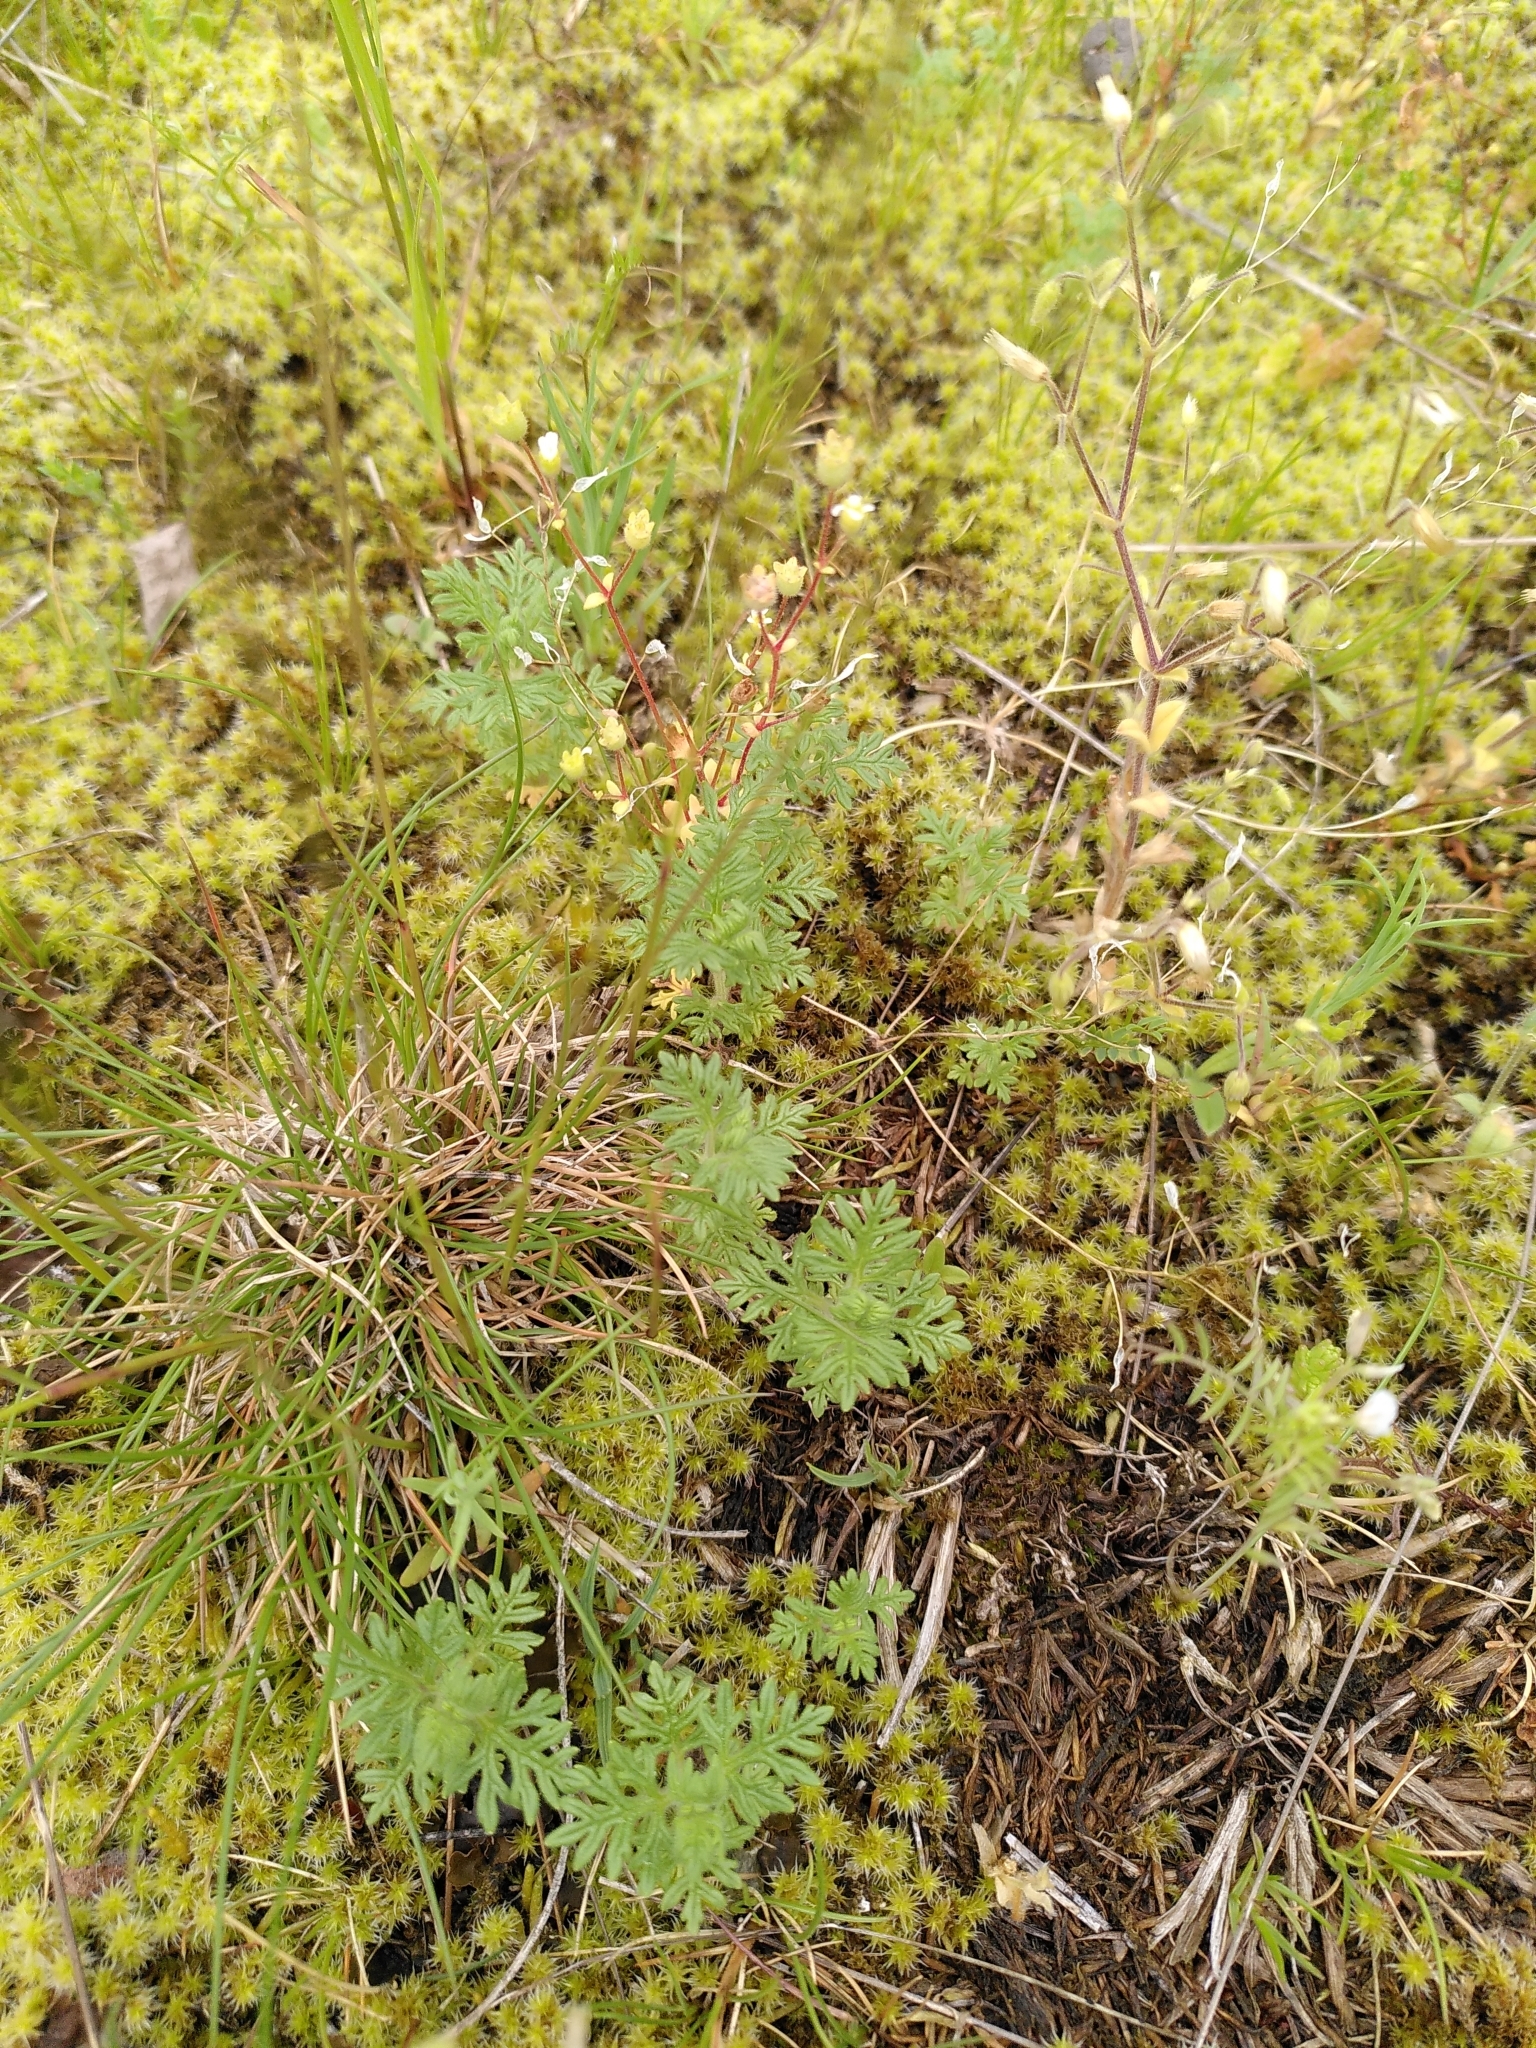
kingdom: Plantae
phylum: Tracheophyta
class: Magnoliopsida
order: Lamiales
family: Lamiaceae
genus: Teucrium
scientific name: Teucrium botrys
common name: Cut-leaved germander
